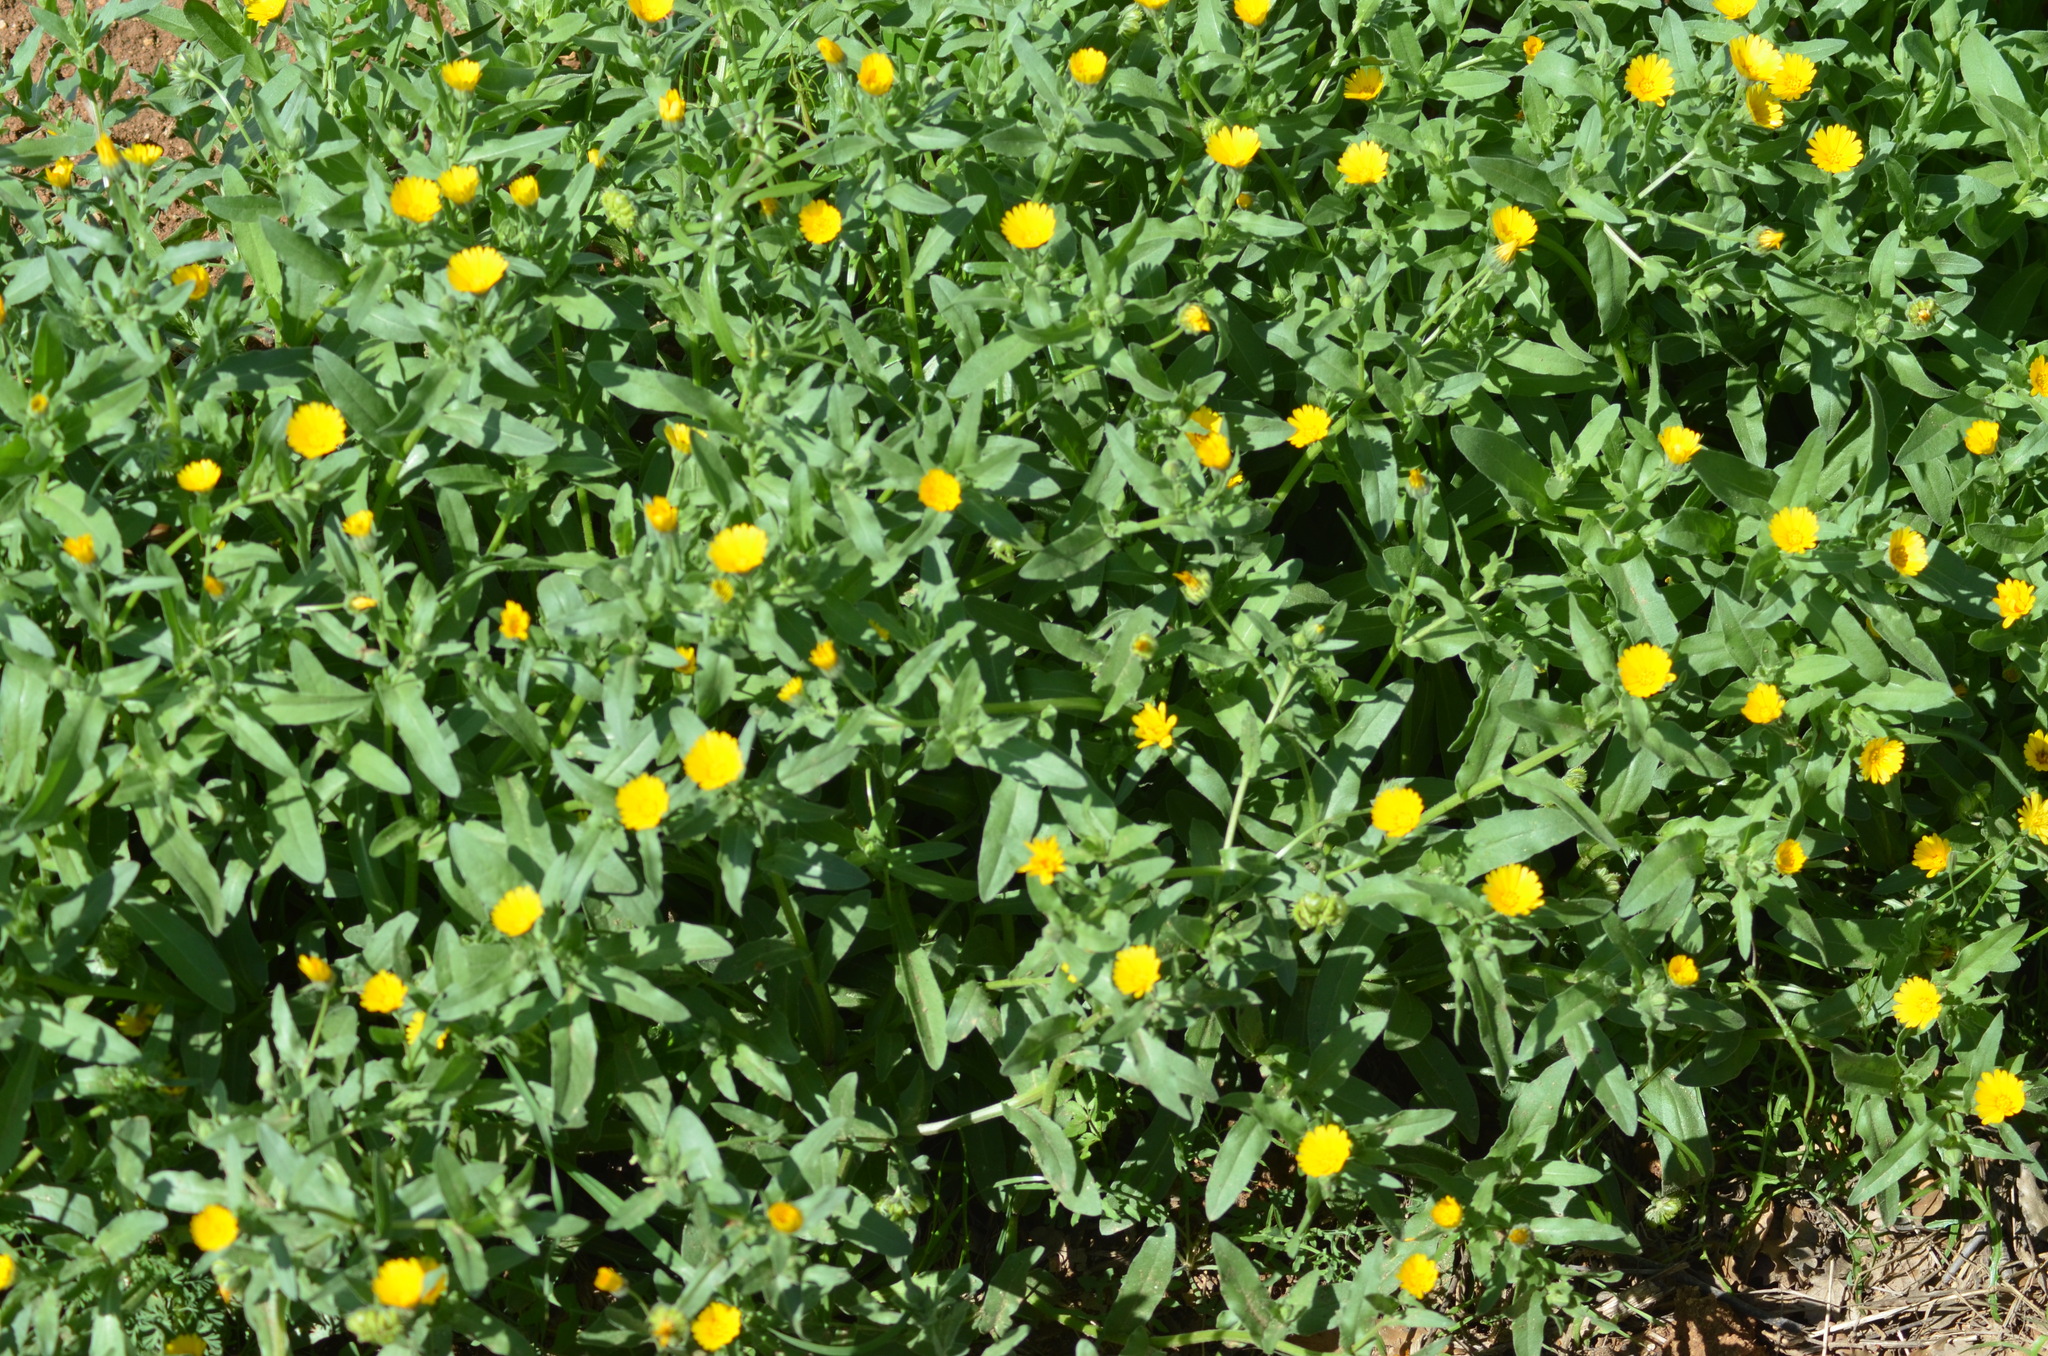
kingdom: Plantae
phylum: Tracheophyta
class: Magnoliopsida
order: Asterales
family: Asteraceae
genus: Calendula
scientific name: Calendula arvensis
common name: Field marigold
